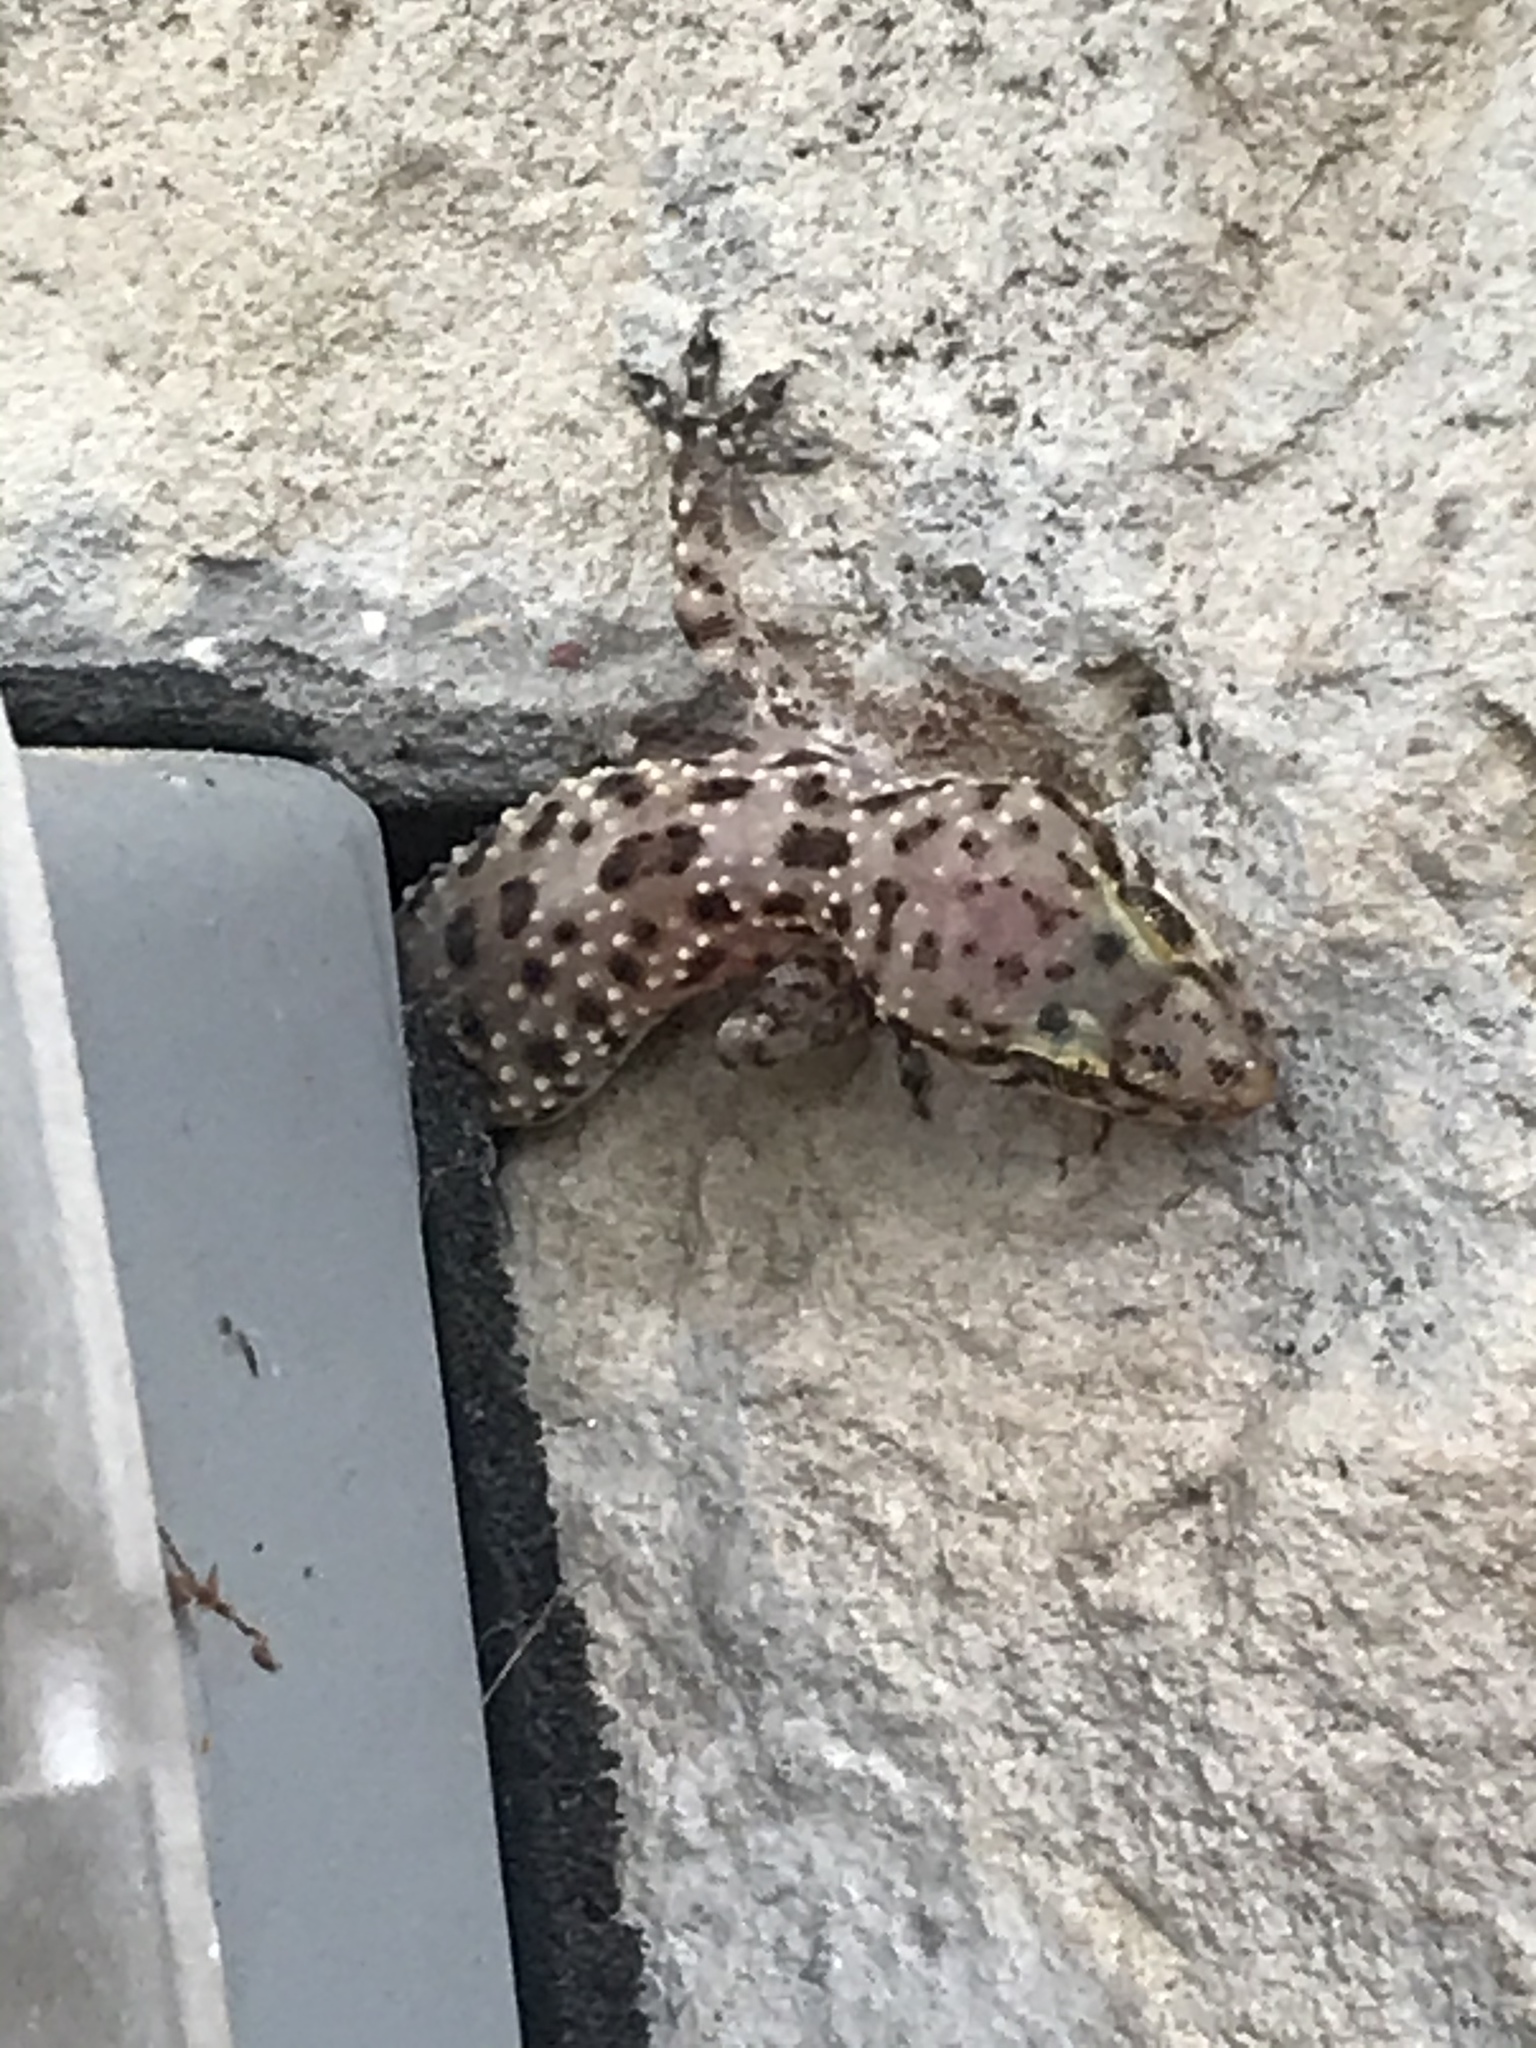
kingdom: Animalia
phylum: Chordata
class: Squamata
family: Gekkonidae
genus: Hemidactylus
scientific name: Hemidactylus turcicus
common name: Turkish gecko
